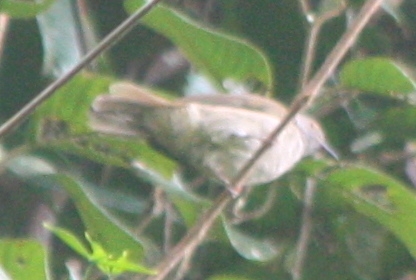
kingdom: Animalia
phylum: Chordata
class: Aves
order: Passeriformes
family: Pycnonotidae
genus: Rubigula
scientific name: Rubigula erythropthalmos
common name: Spectacled bulbul
